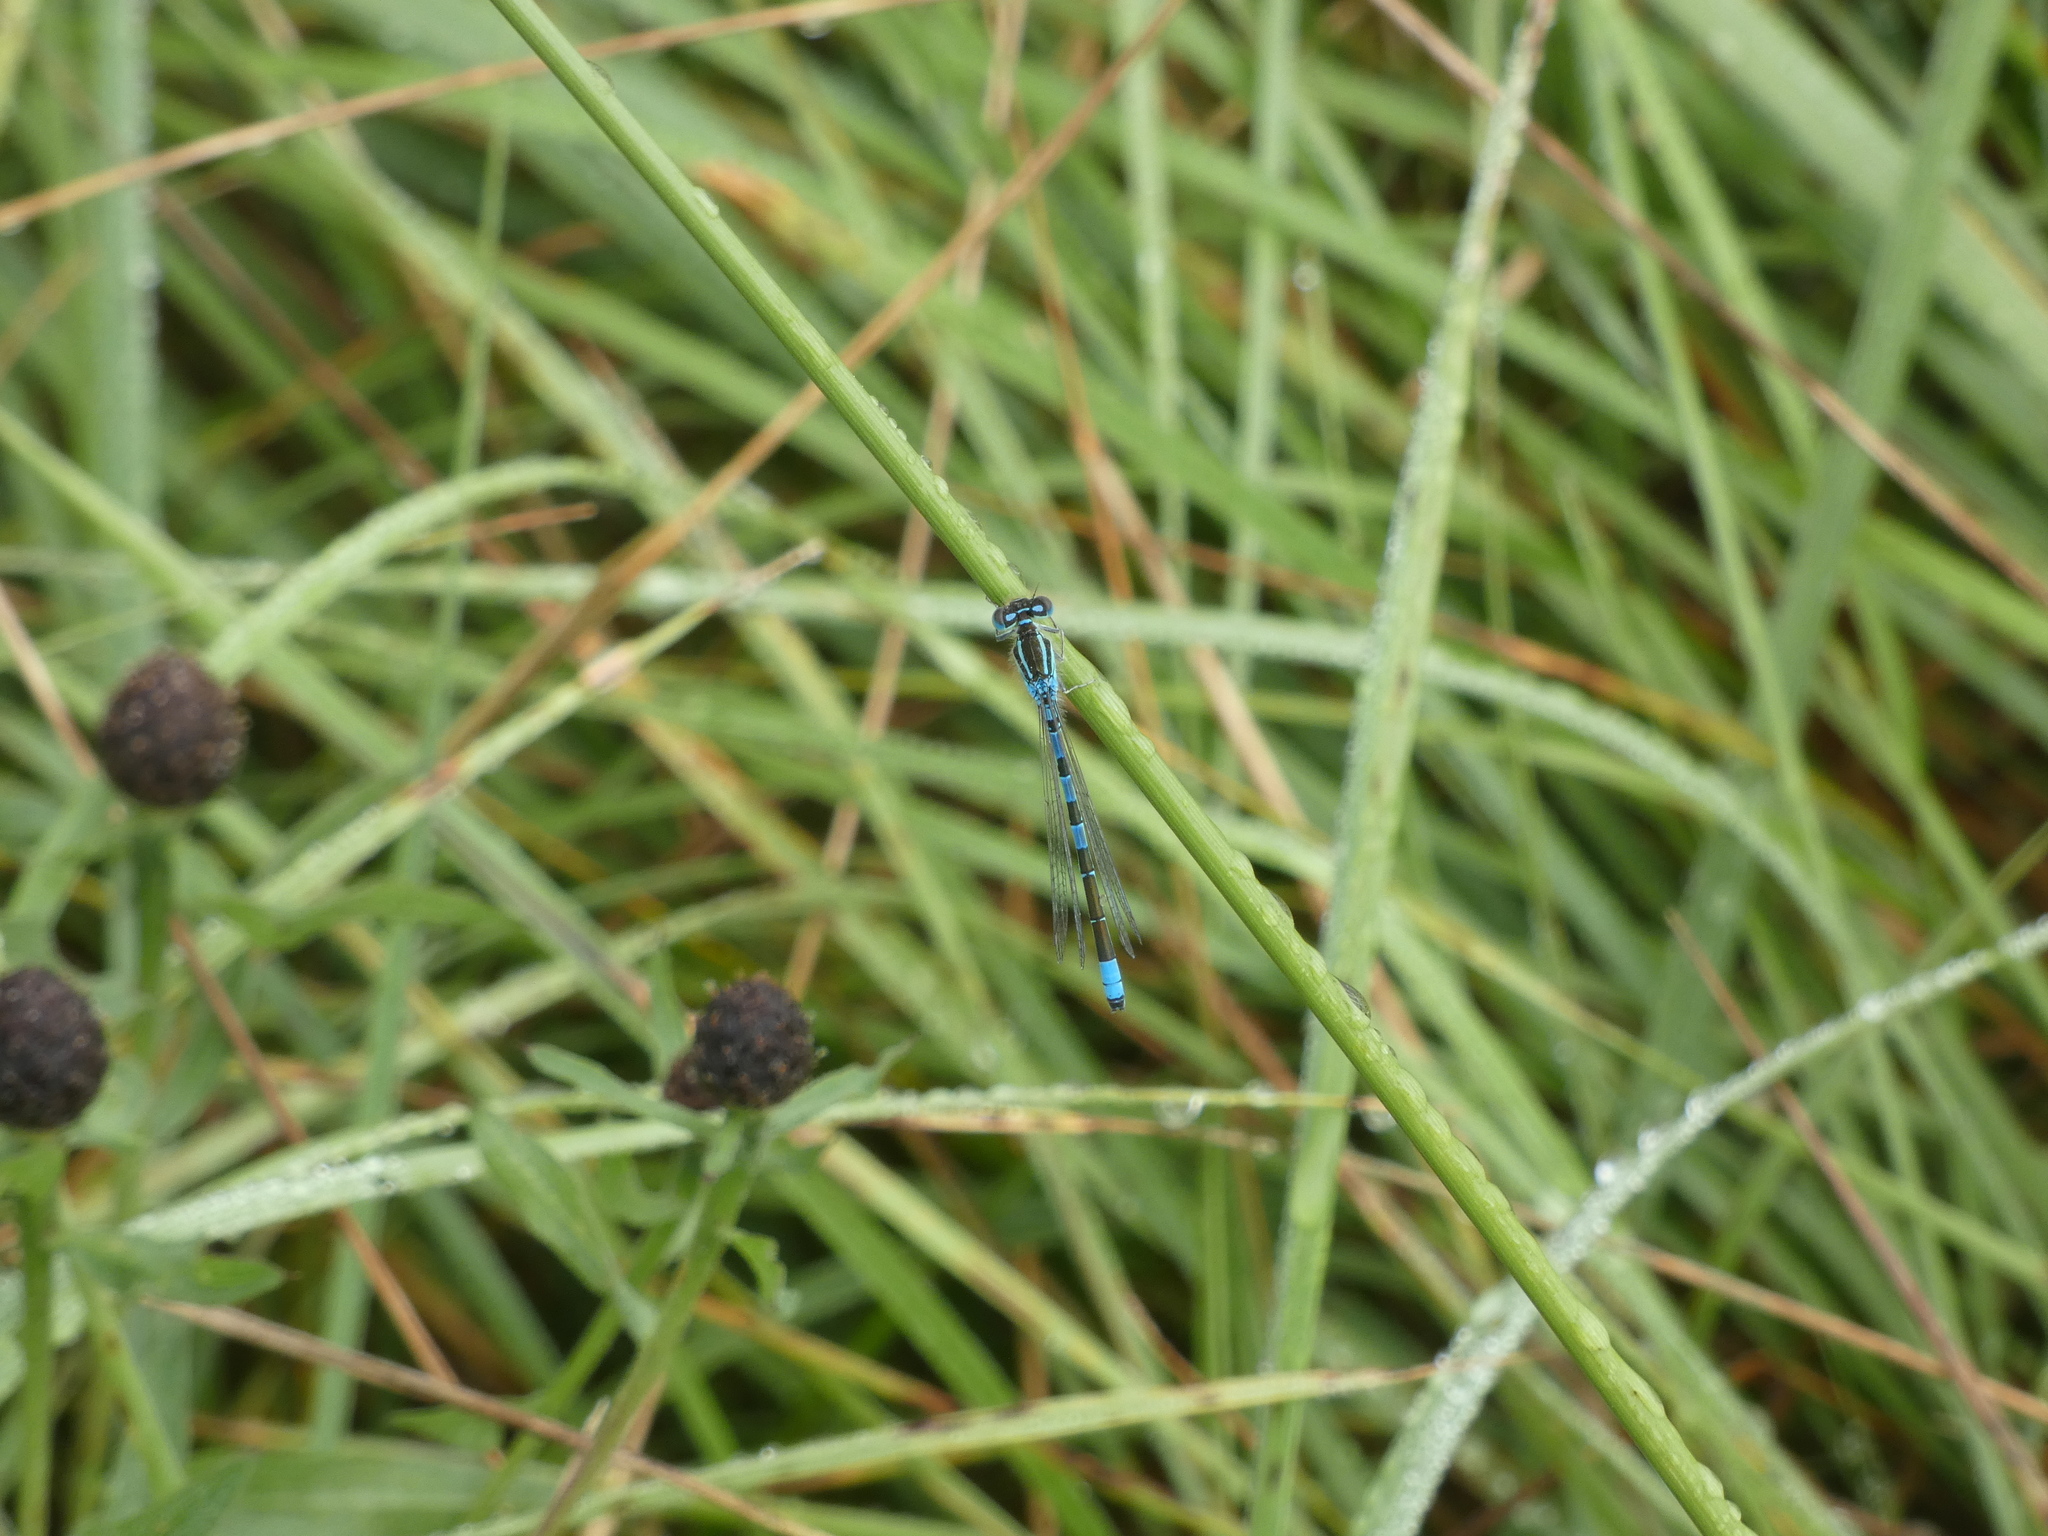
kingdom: Animalia
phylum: Arthropoda
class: Insecta
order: Odonata
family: Coenagrionidae
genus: Coenagrion
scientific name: Coenagrion scitulum
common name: Dainty bluet
